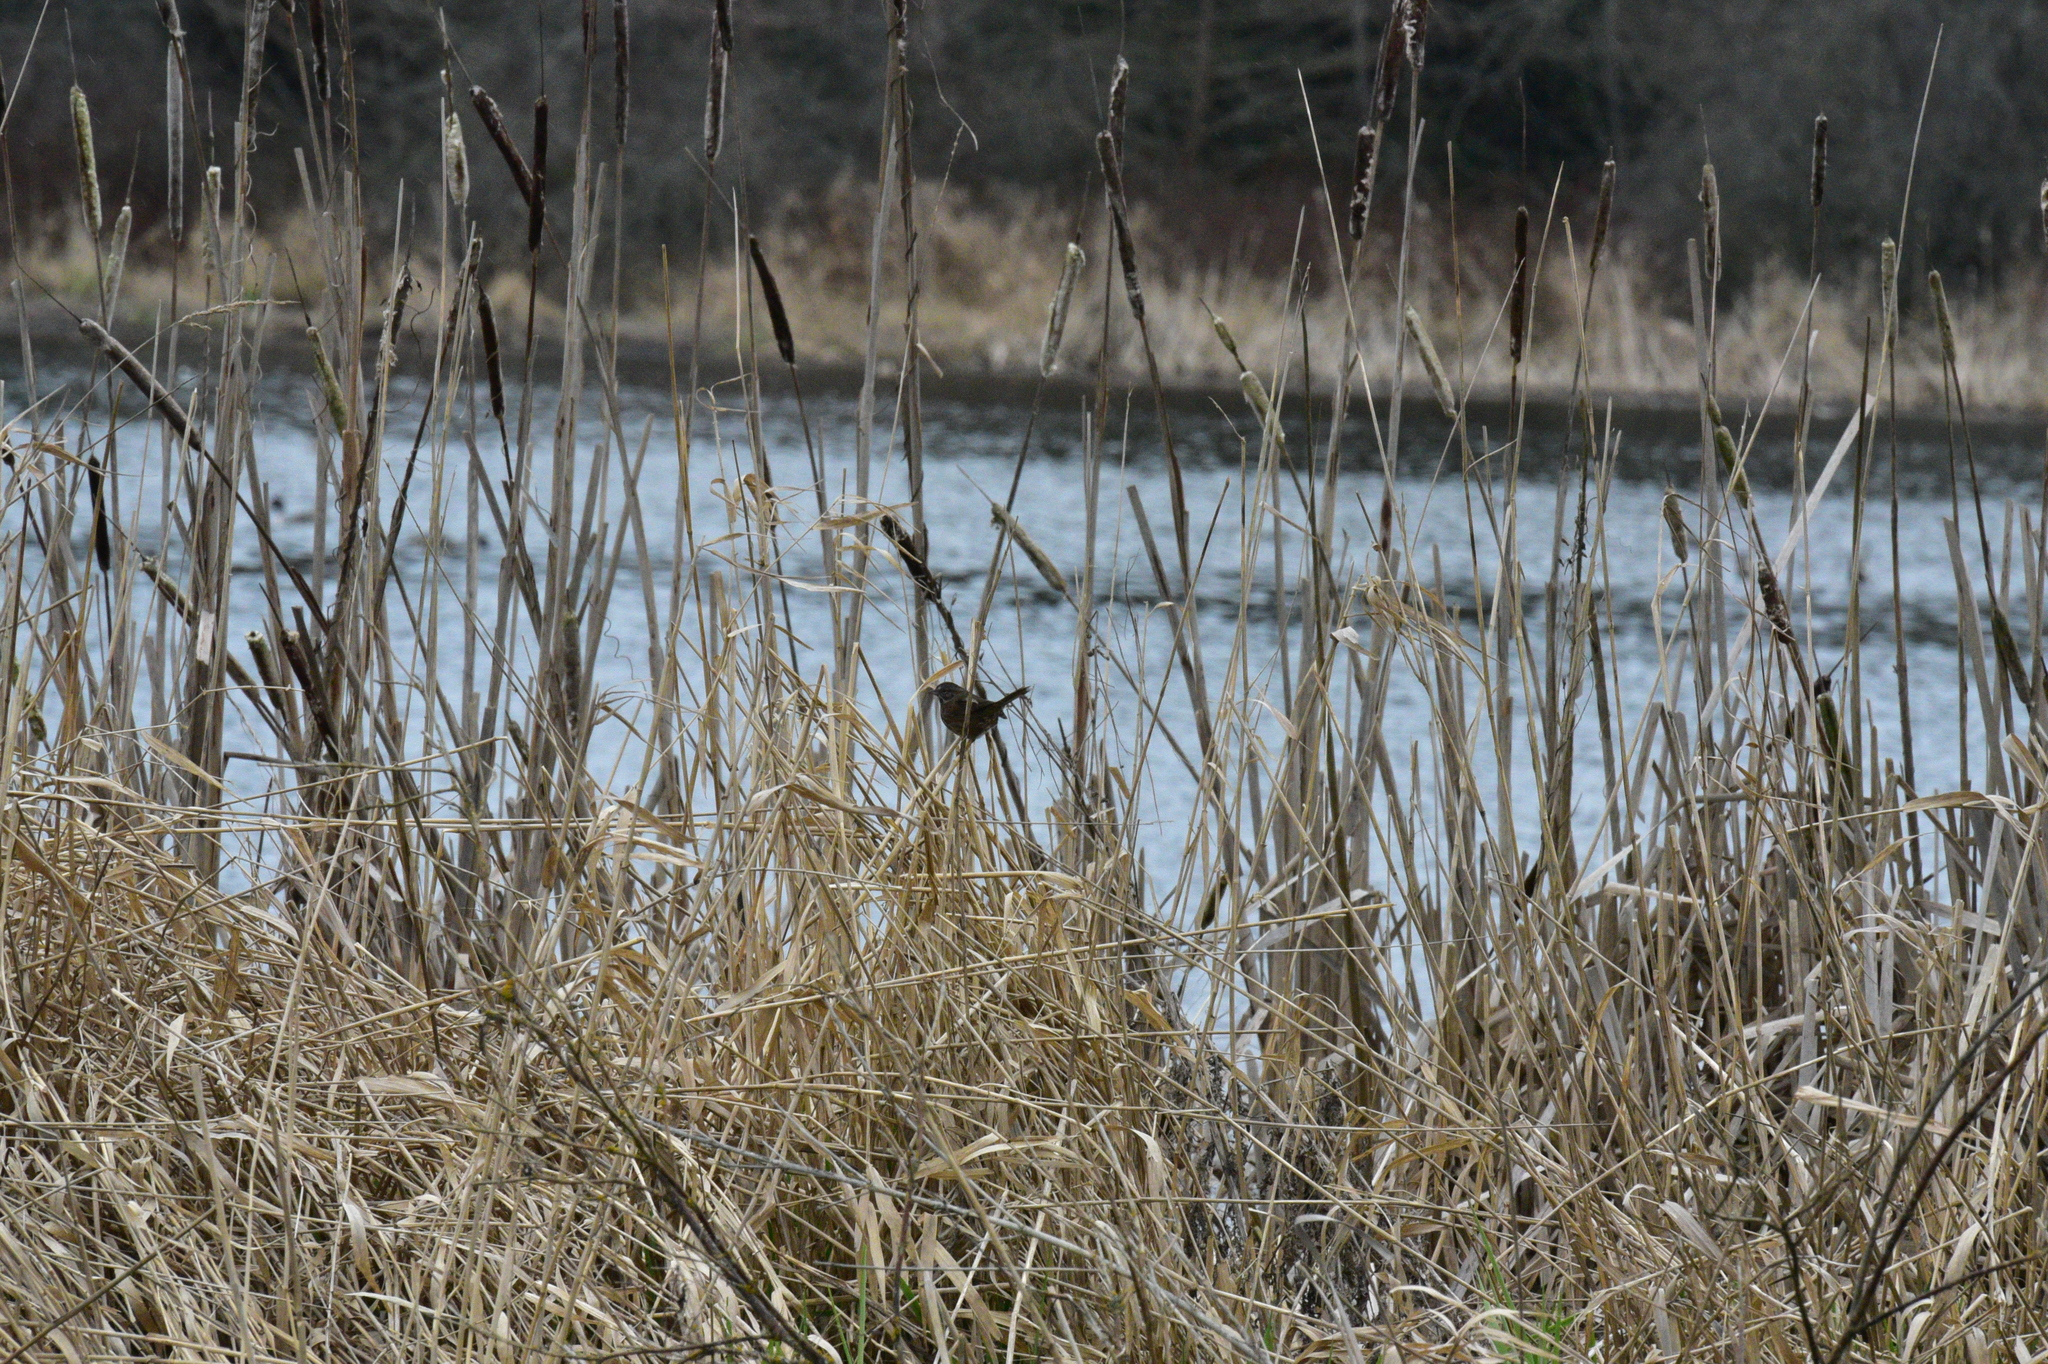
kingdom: Animalia
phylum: Chordata
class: Aves
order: Passeriformes
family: Troglodytidae
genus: Cistothorus
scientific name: Cistothorus palustris
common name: Marsh wren
